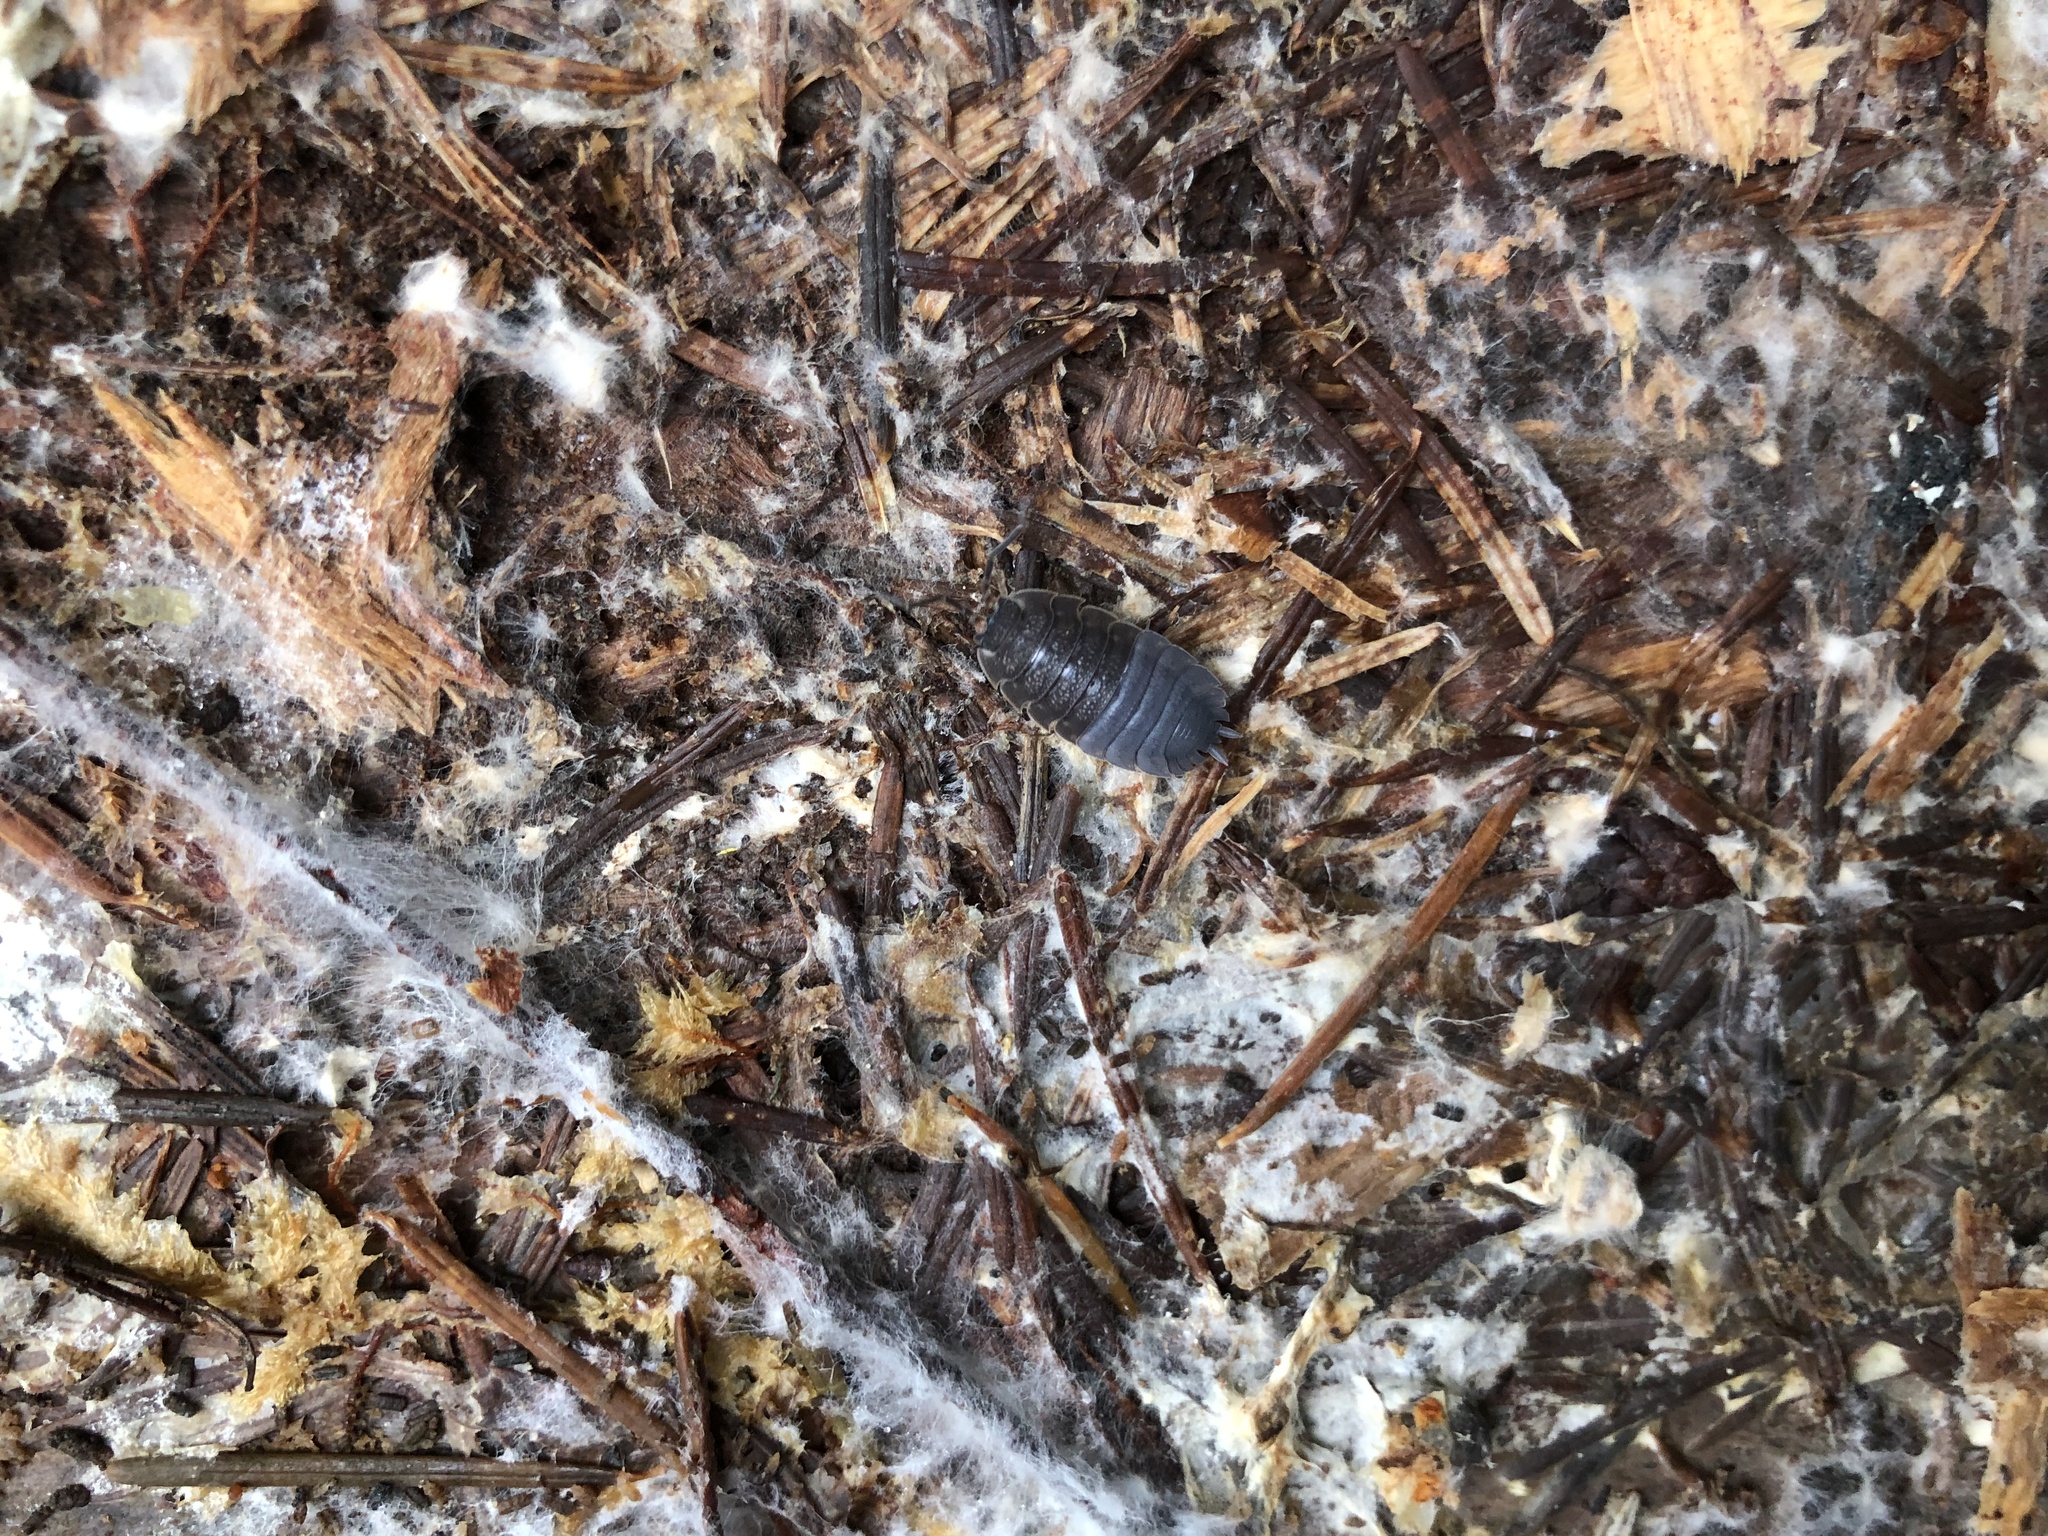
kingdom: Animalia
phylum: Arthropoda
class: Malacostraca
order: Isopoda
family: Porcellionidae
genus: Porcellio
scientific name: Porcellio scaber
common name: Common rough woodlouse
